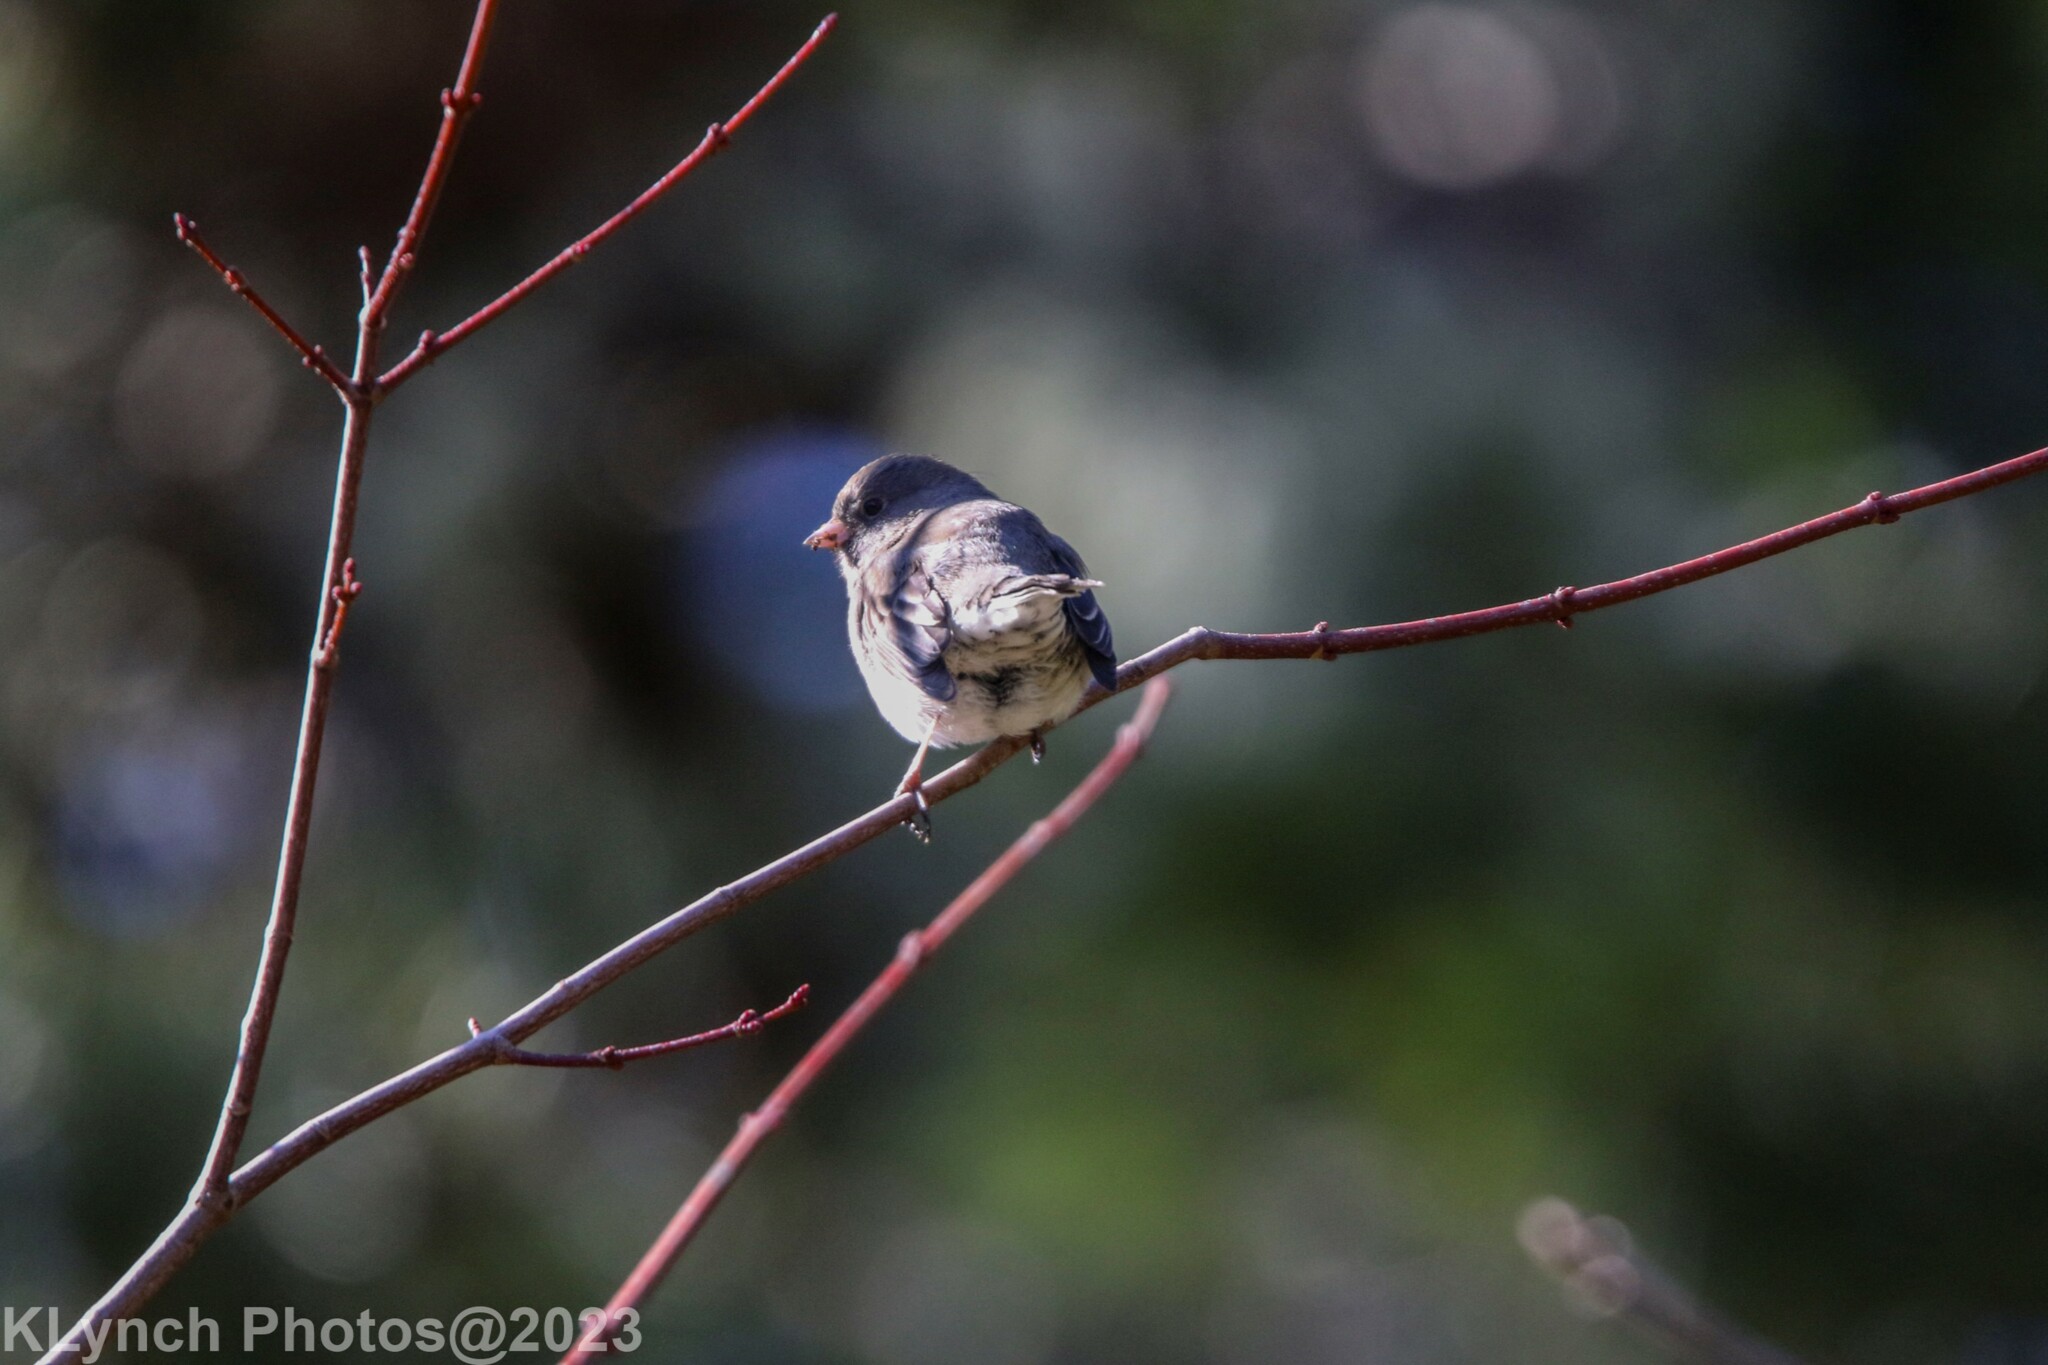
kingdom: Animalia
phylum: Chordata
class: Aves
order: Passeriformes
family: Passerellidae
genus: Junco
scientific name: Junco hyemalis
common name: Dark-eyed junco
